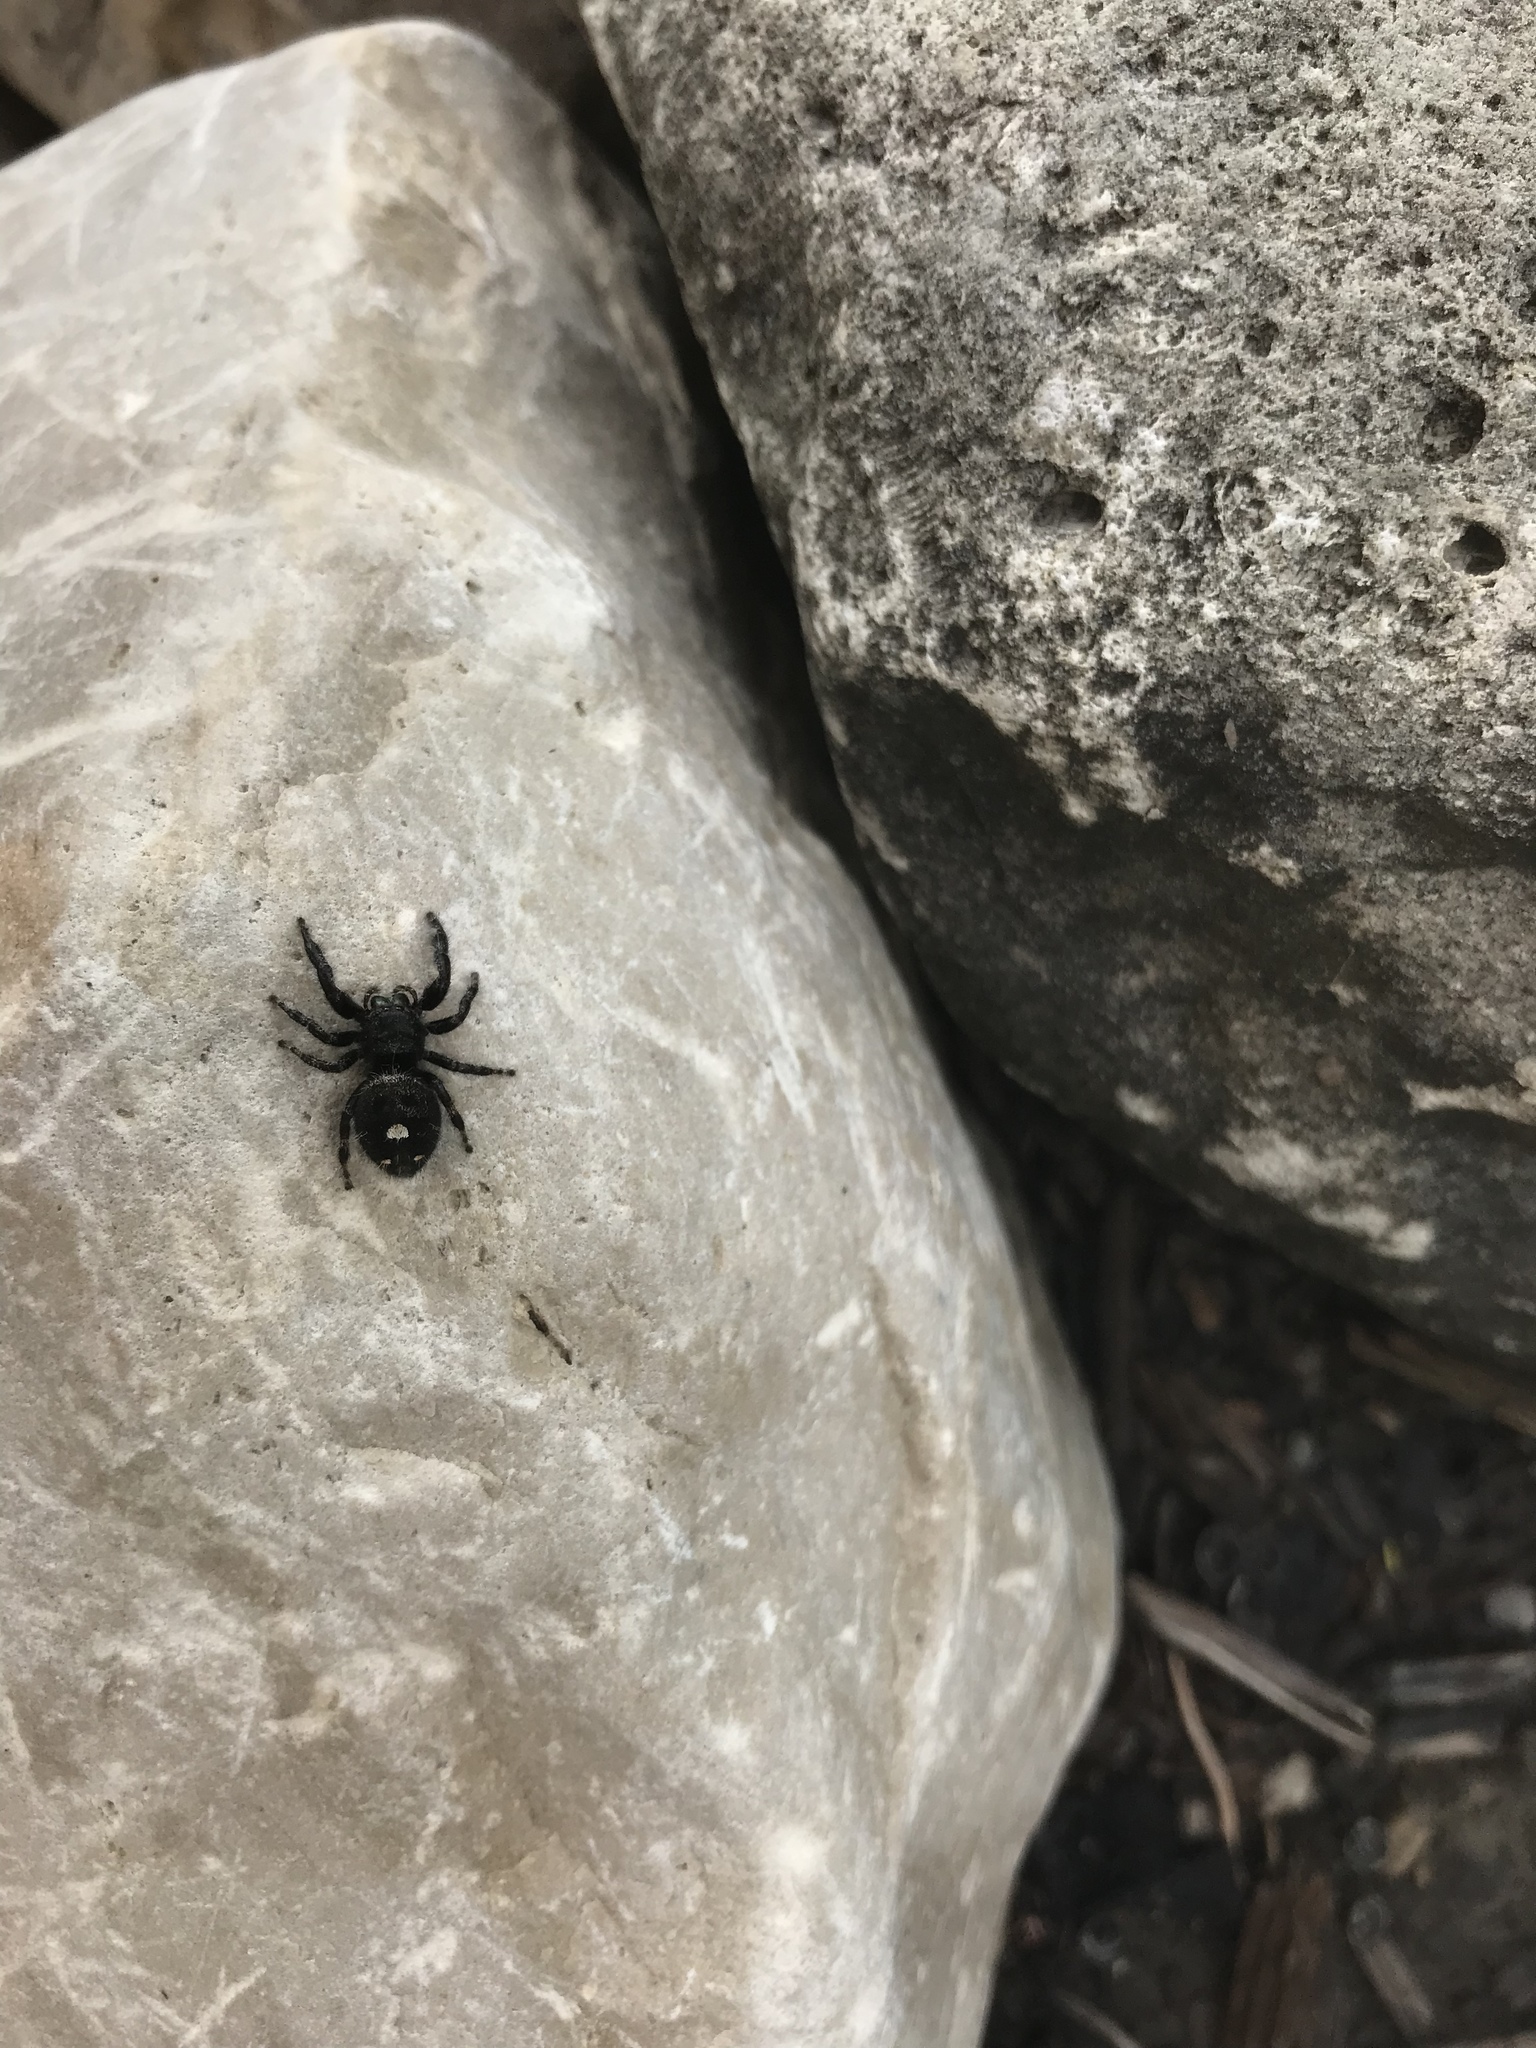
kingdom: Animalia
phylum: Arthropoda
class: Arachnida
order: Araneae
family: Salticidae
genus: Phidippus
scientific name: Phidippus audax
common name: Bold jumper
